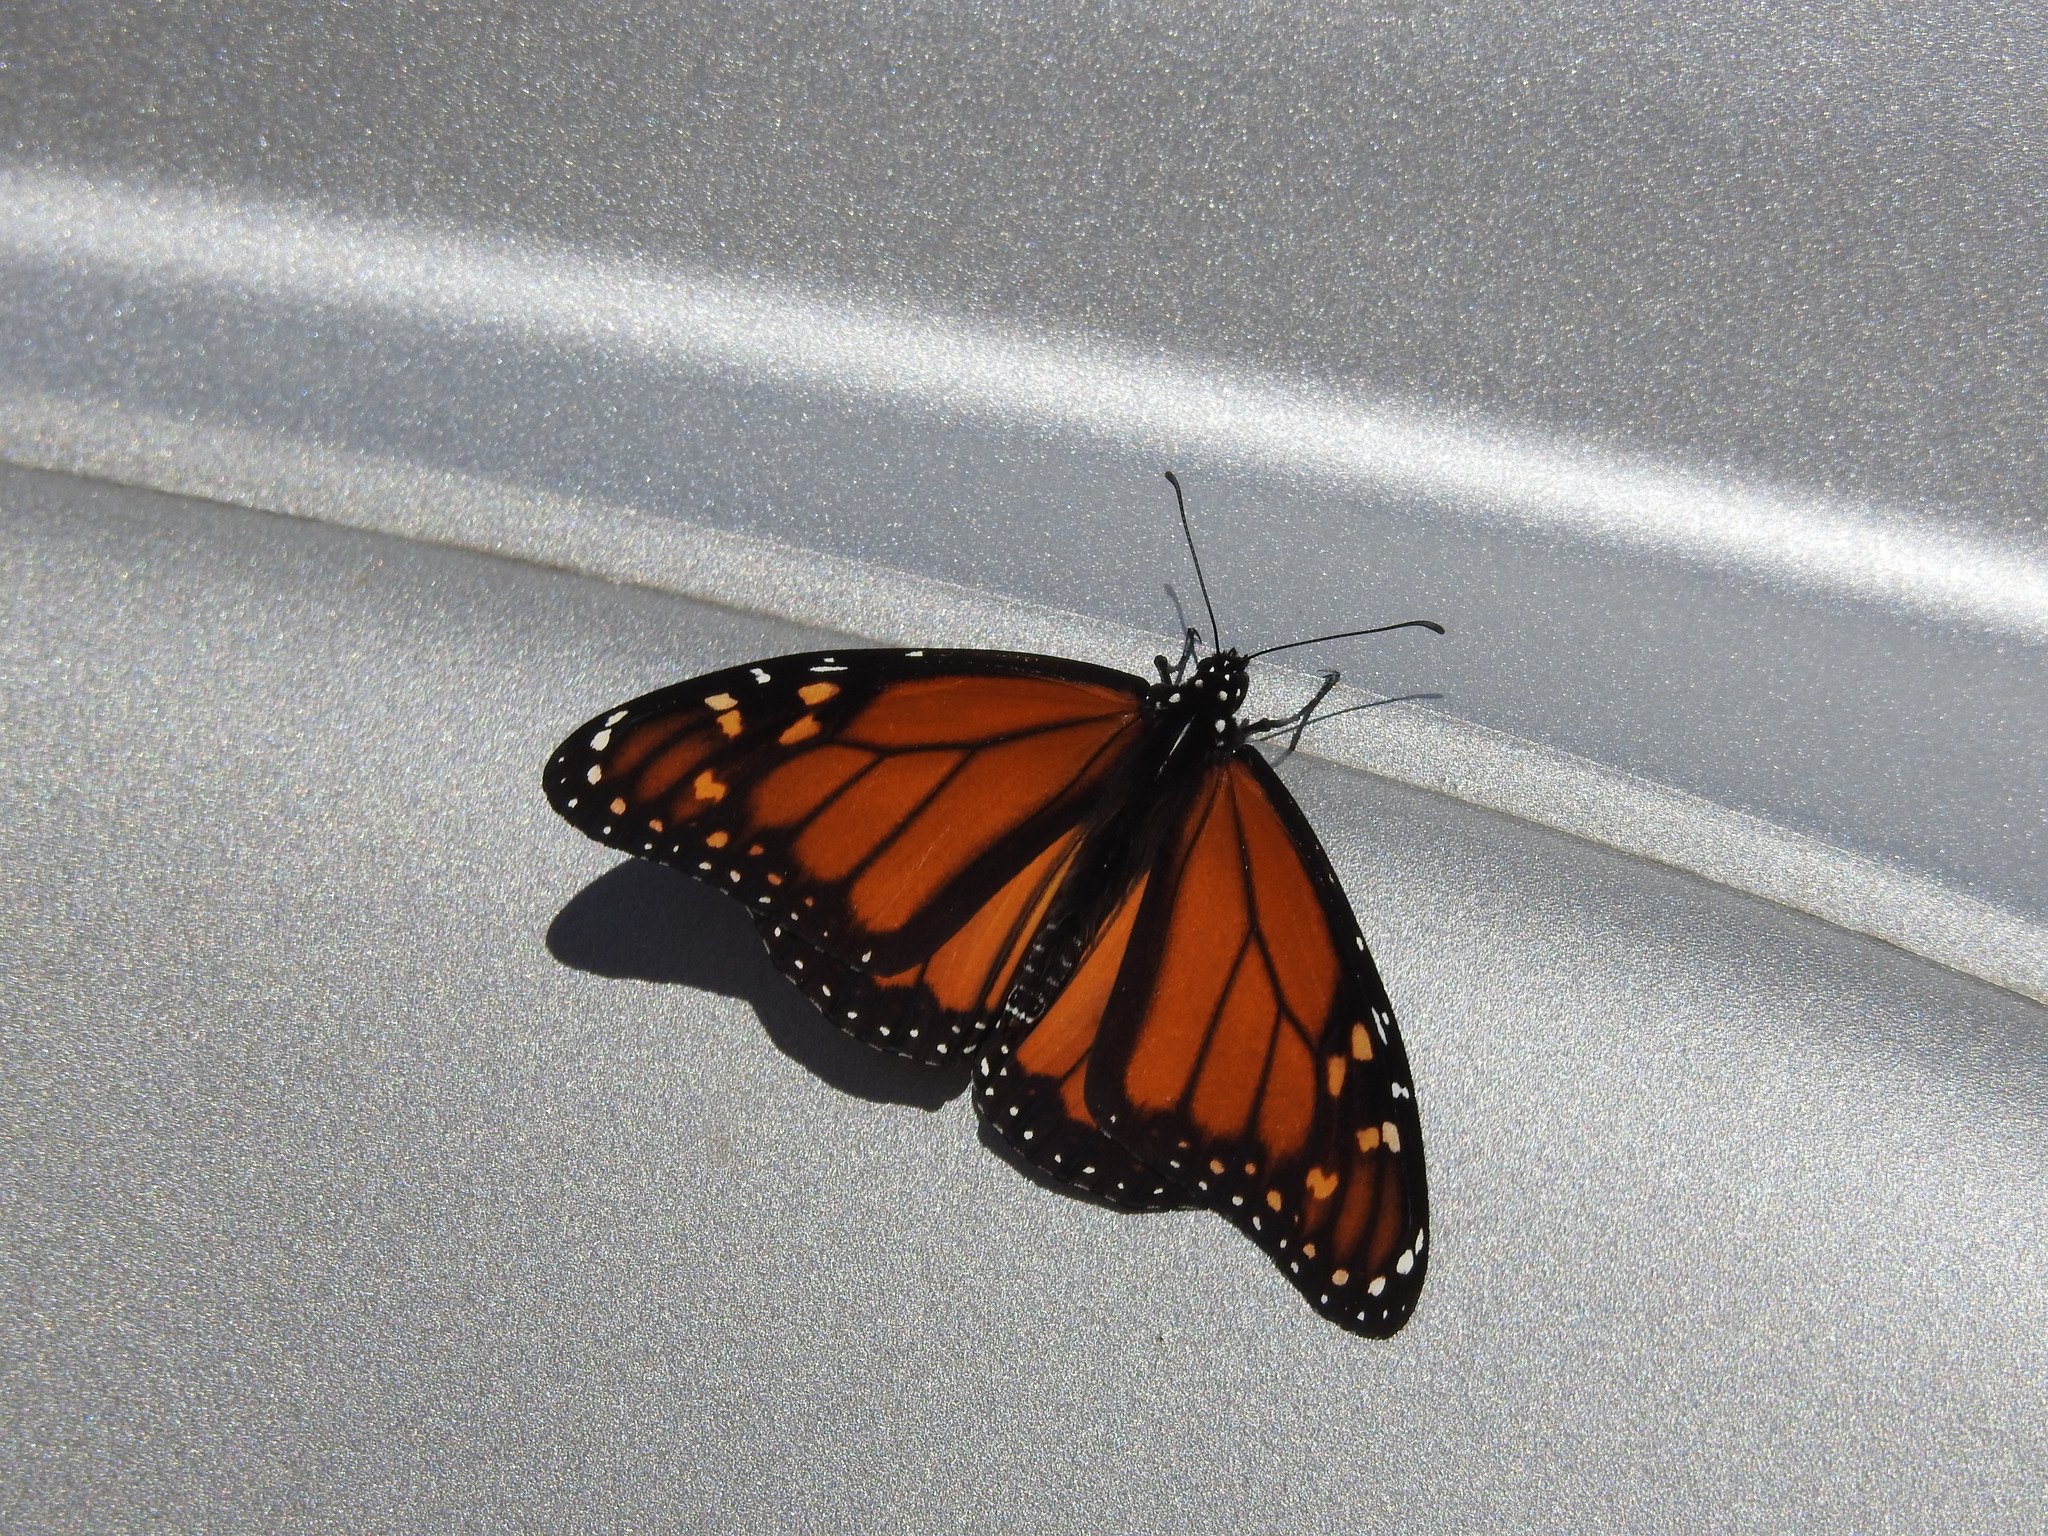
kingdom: Animalia
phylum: Arthropoda
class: Insecta
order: Lepidoptera
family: Nymphalidae
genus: Danaus
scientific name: Danaus plexippus
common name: Monarch
